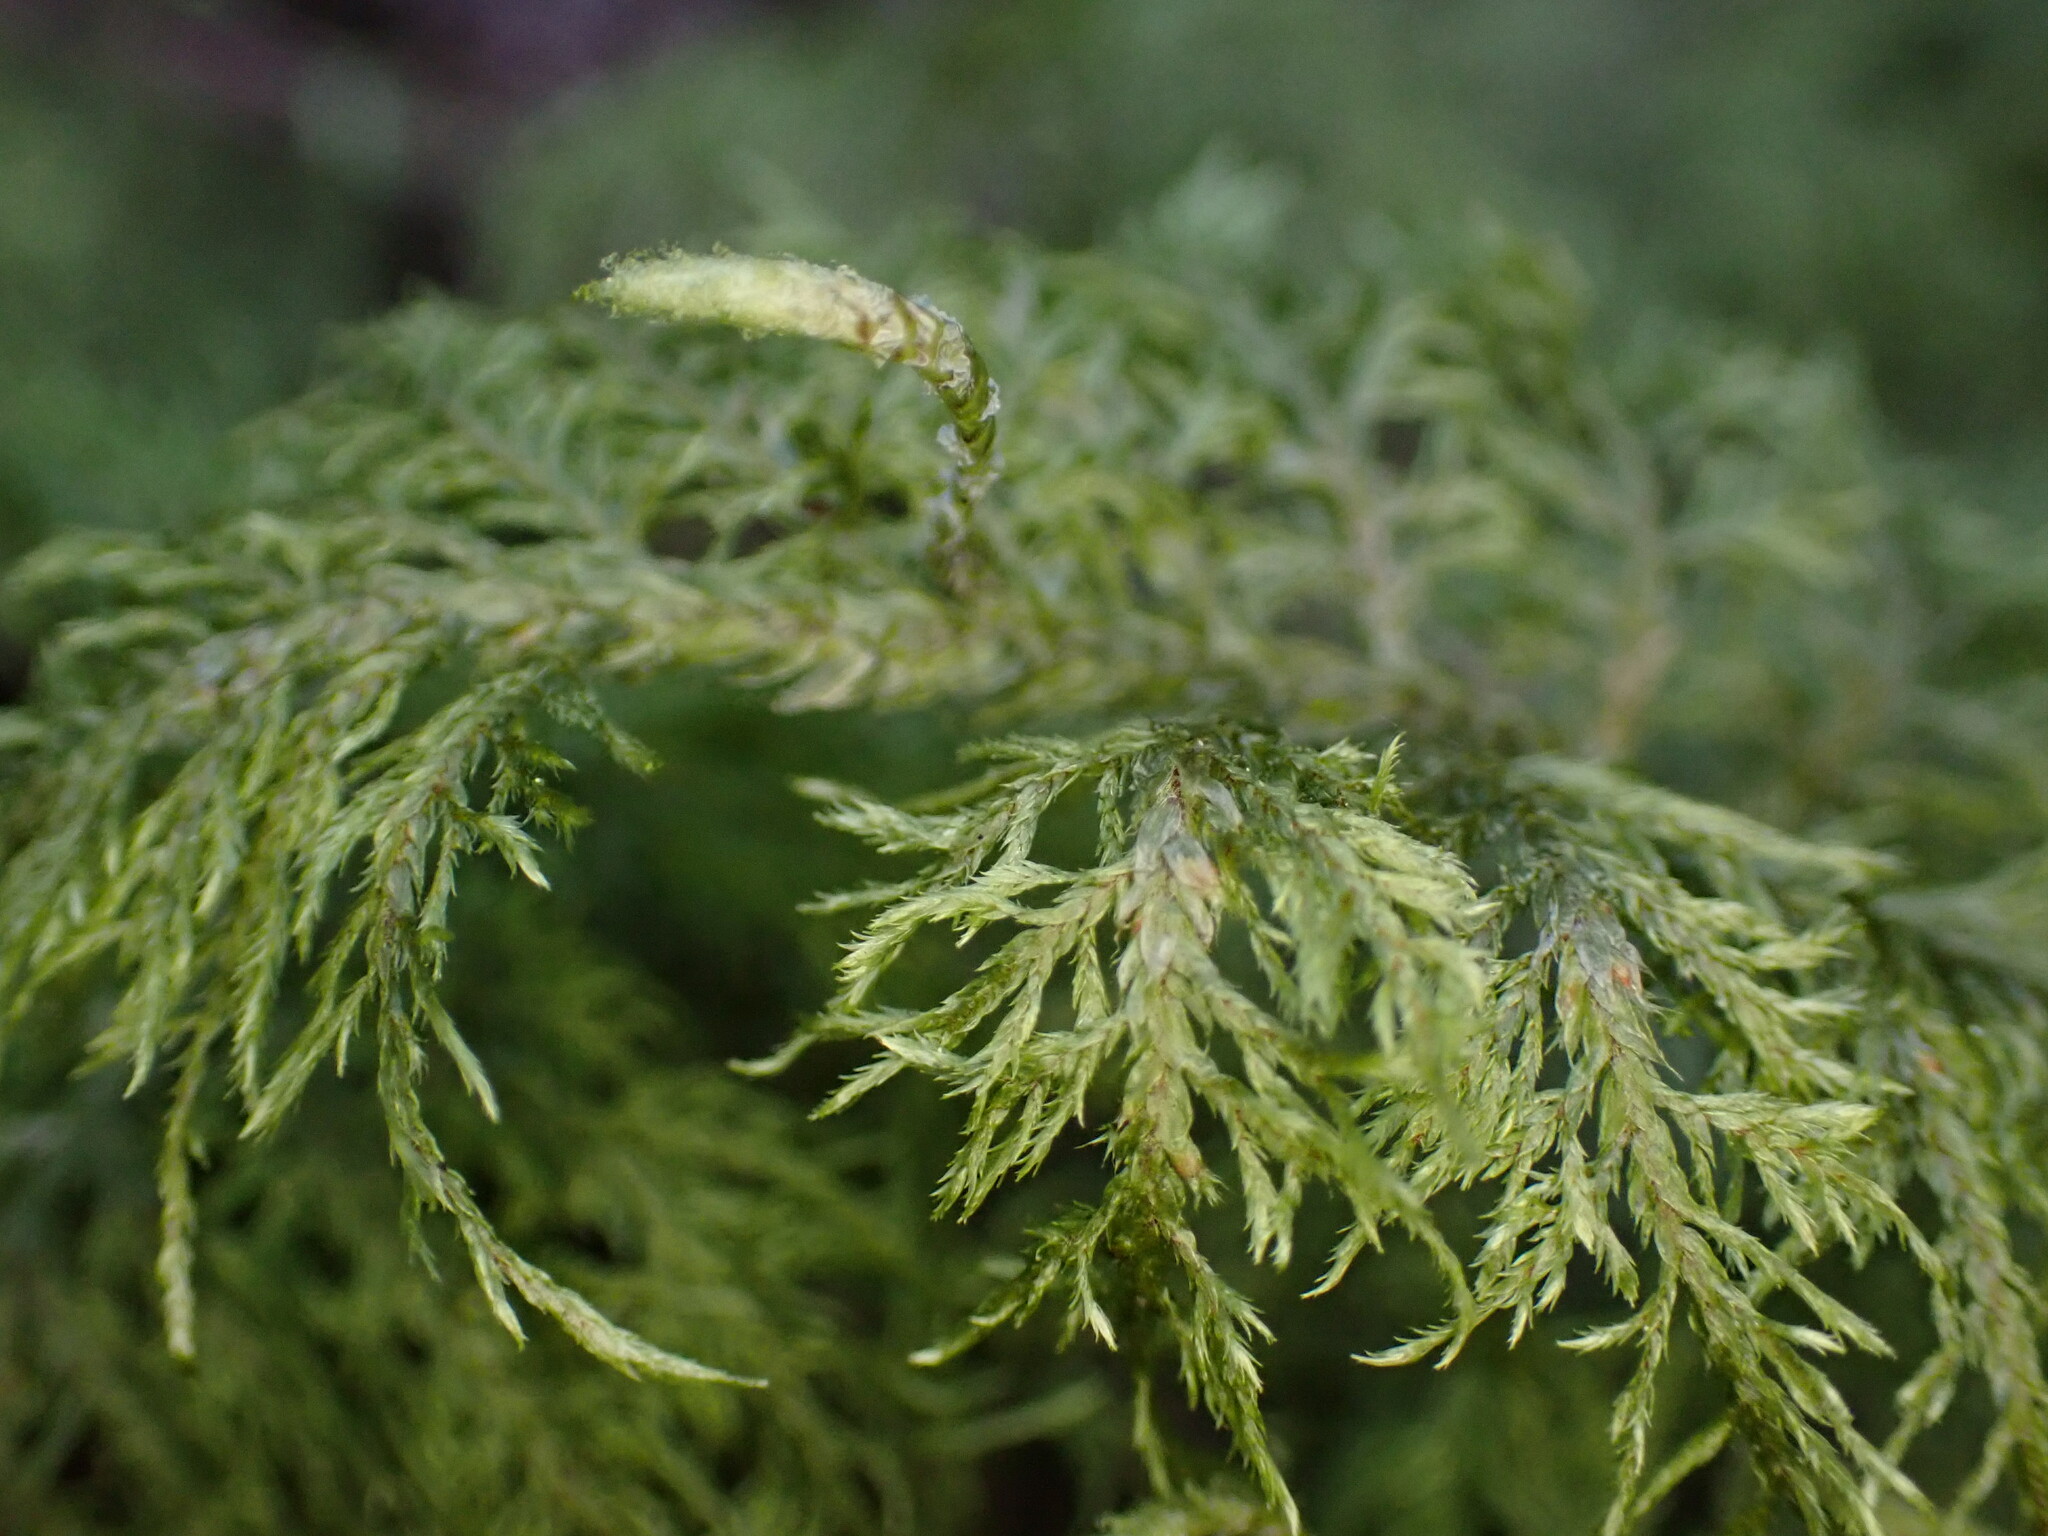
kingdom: Plantae
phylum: Bryophyta
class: Bryopsida
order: Hypnales
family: Hylocomiaceae
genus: Hylocomium
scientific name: Hylocomium splendens
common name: Stairstep moss
